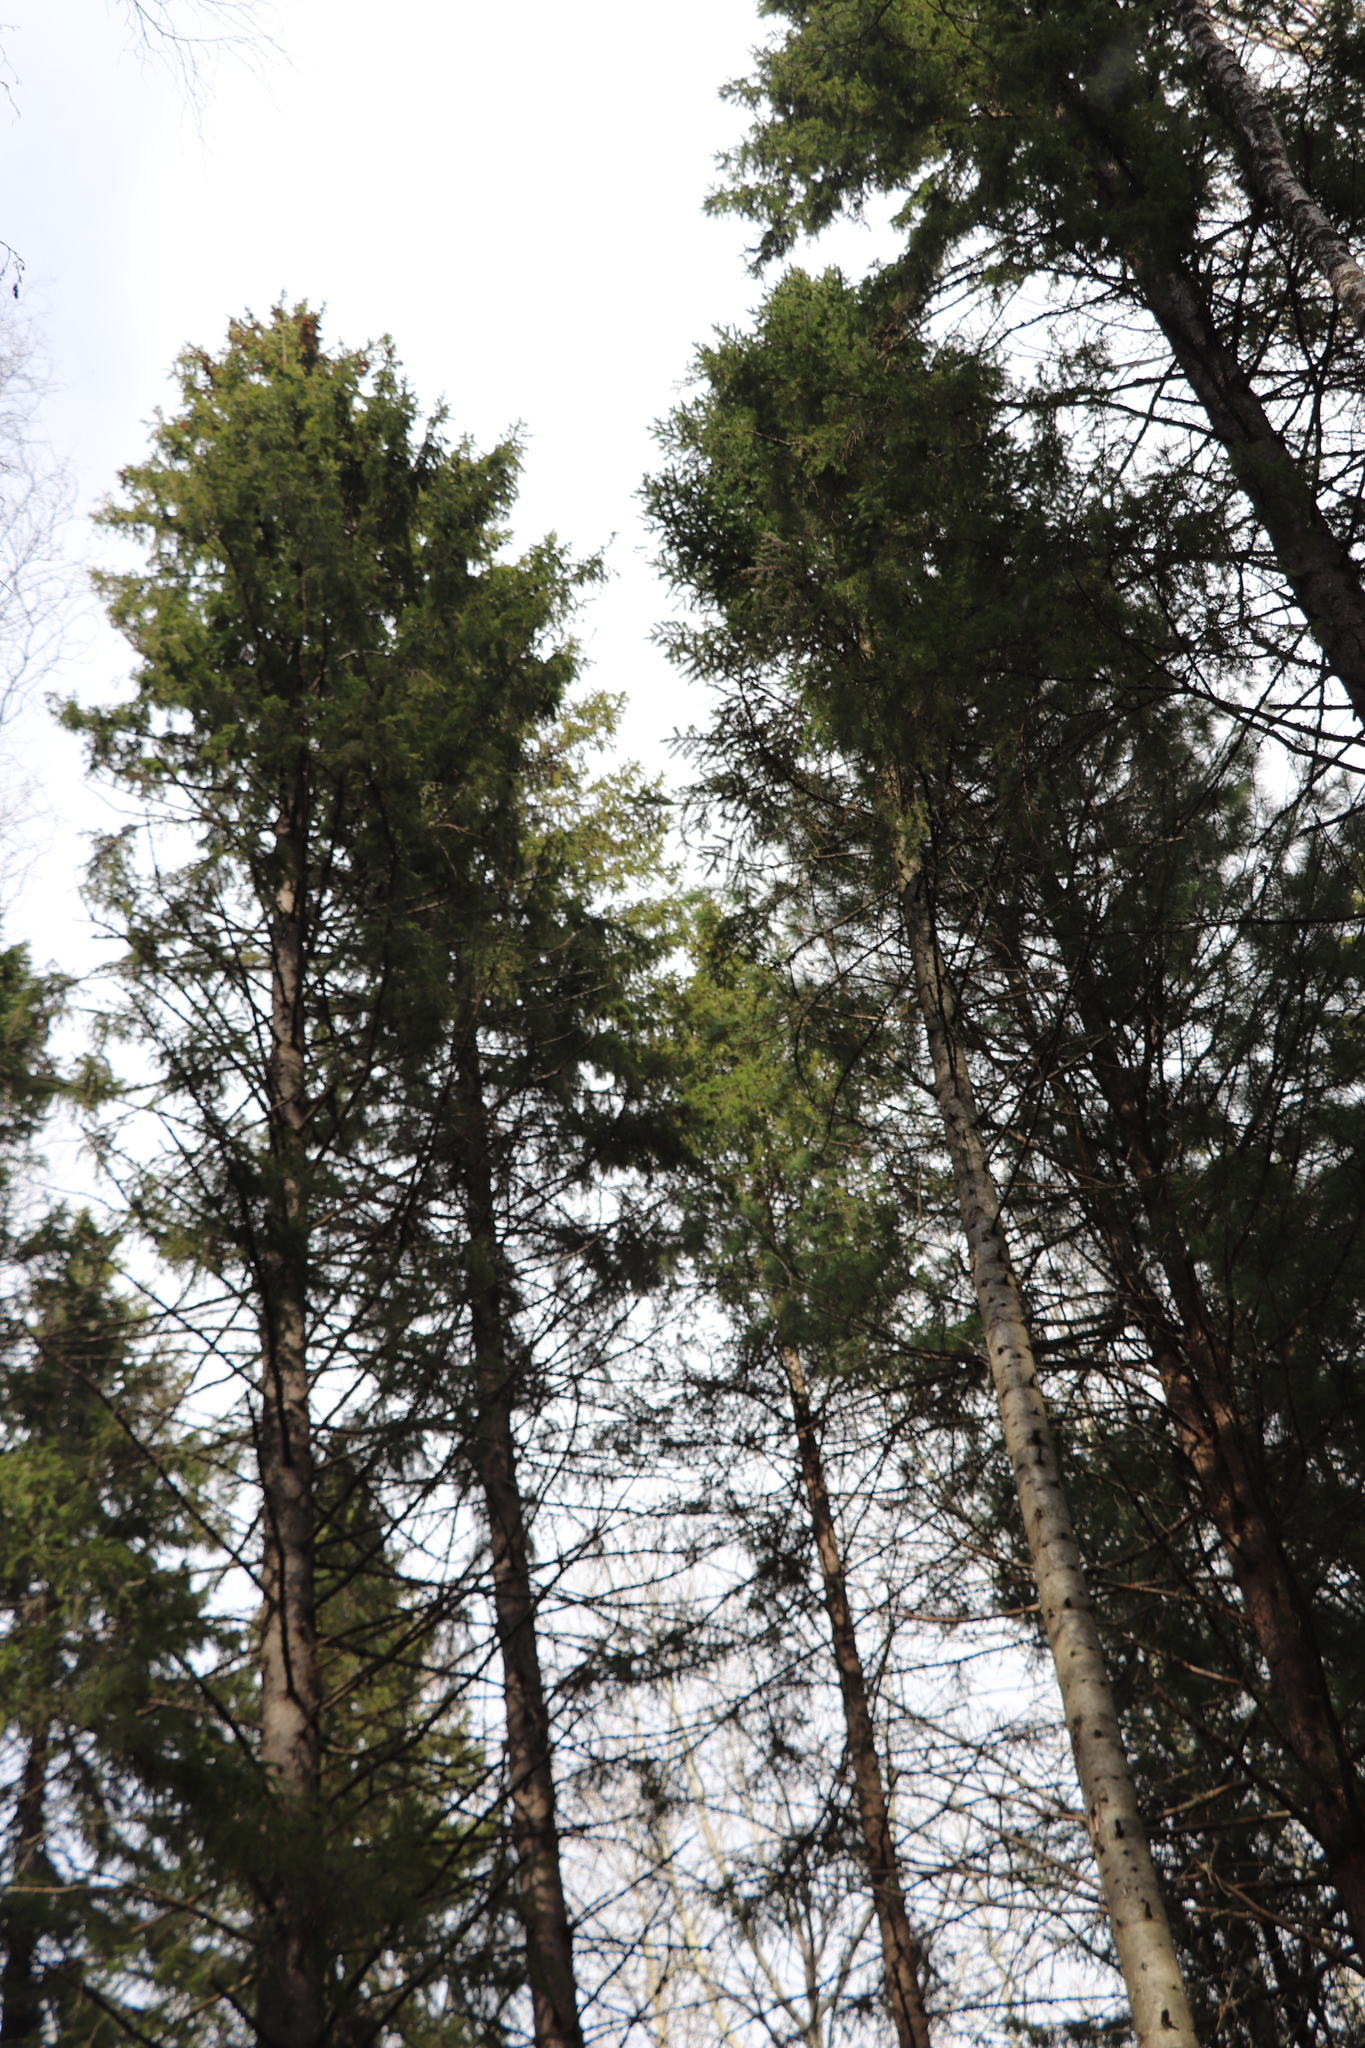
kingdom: Plantae
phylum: Tracheophyta
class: Pinopsida
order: Pinales
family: Pinaceae
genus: Picea
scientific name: Picea obovata
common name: Siberian spruce
